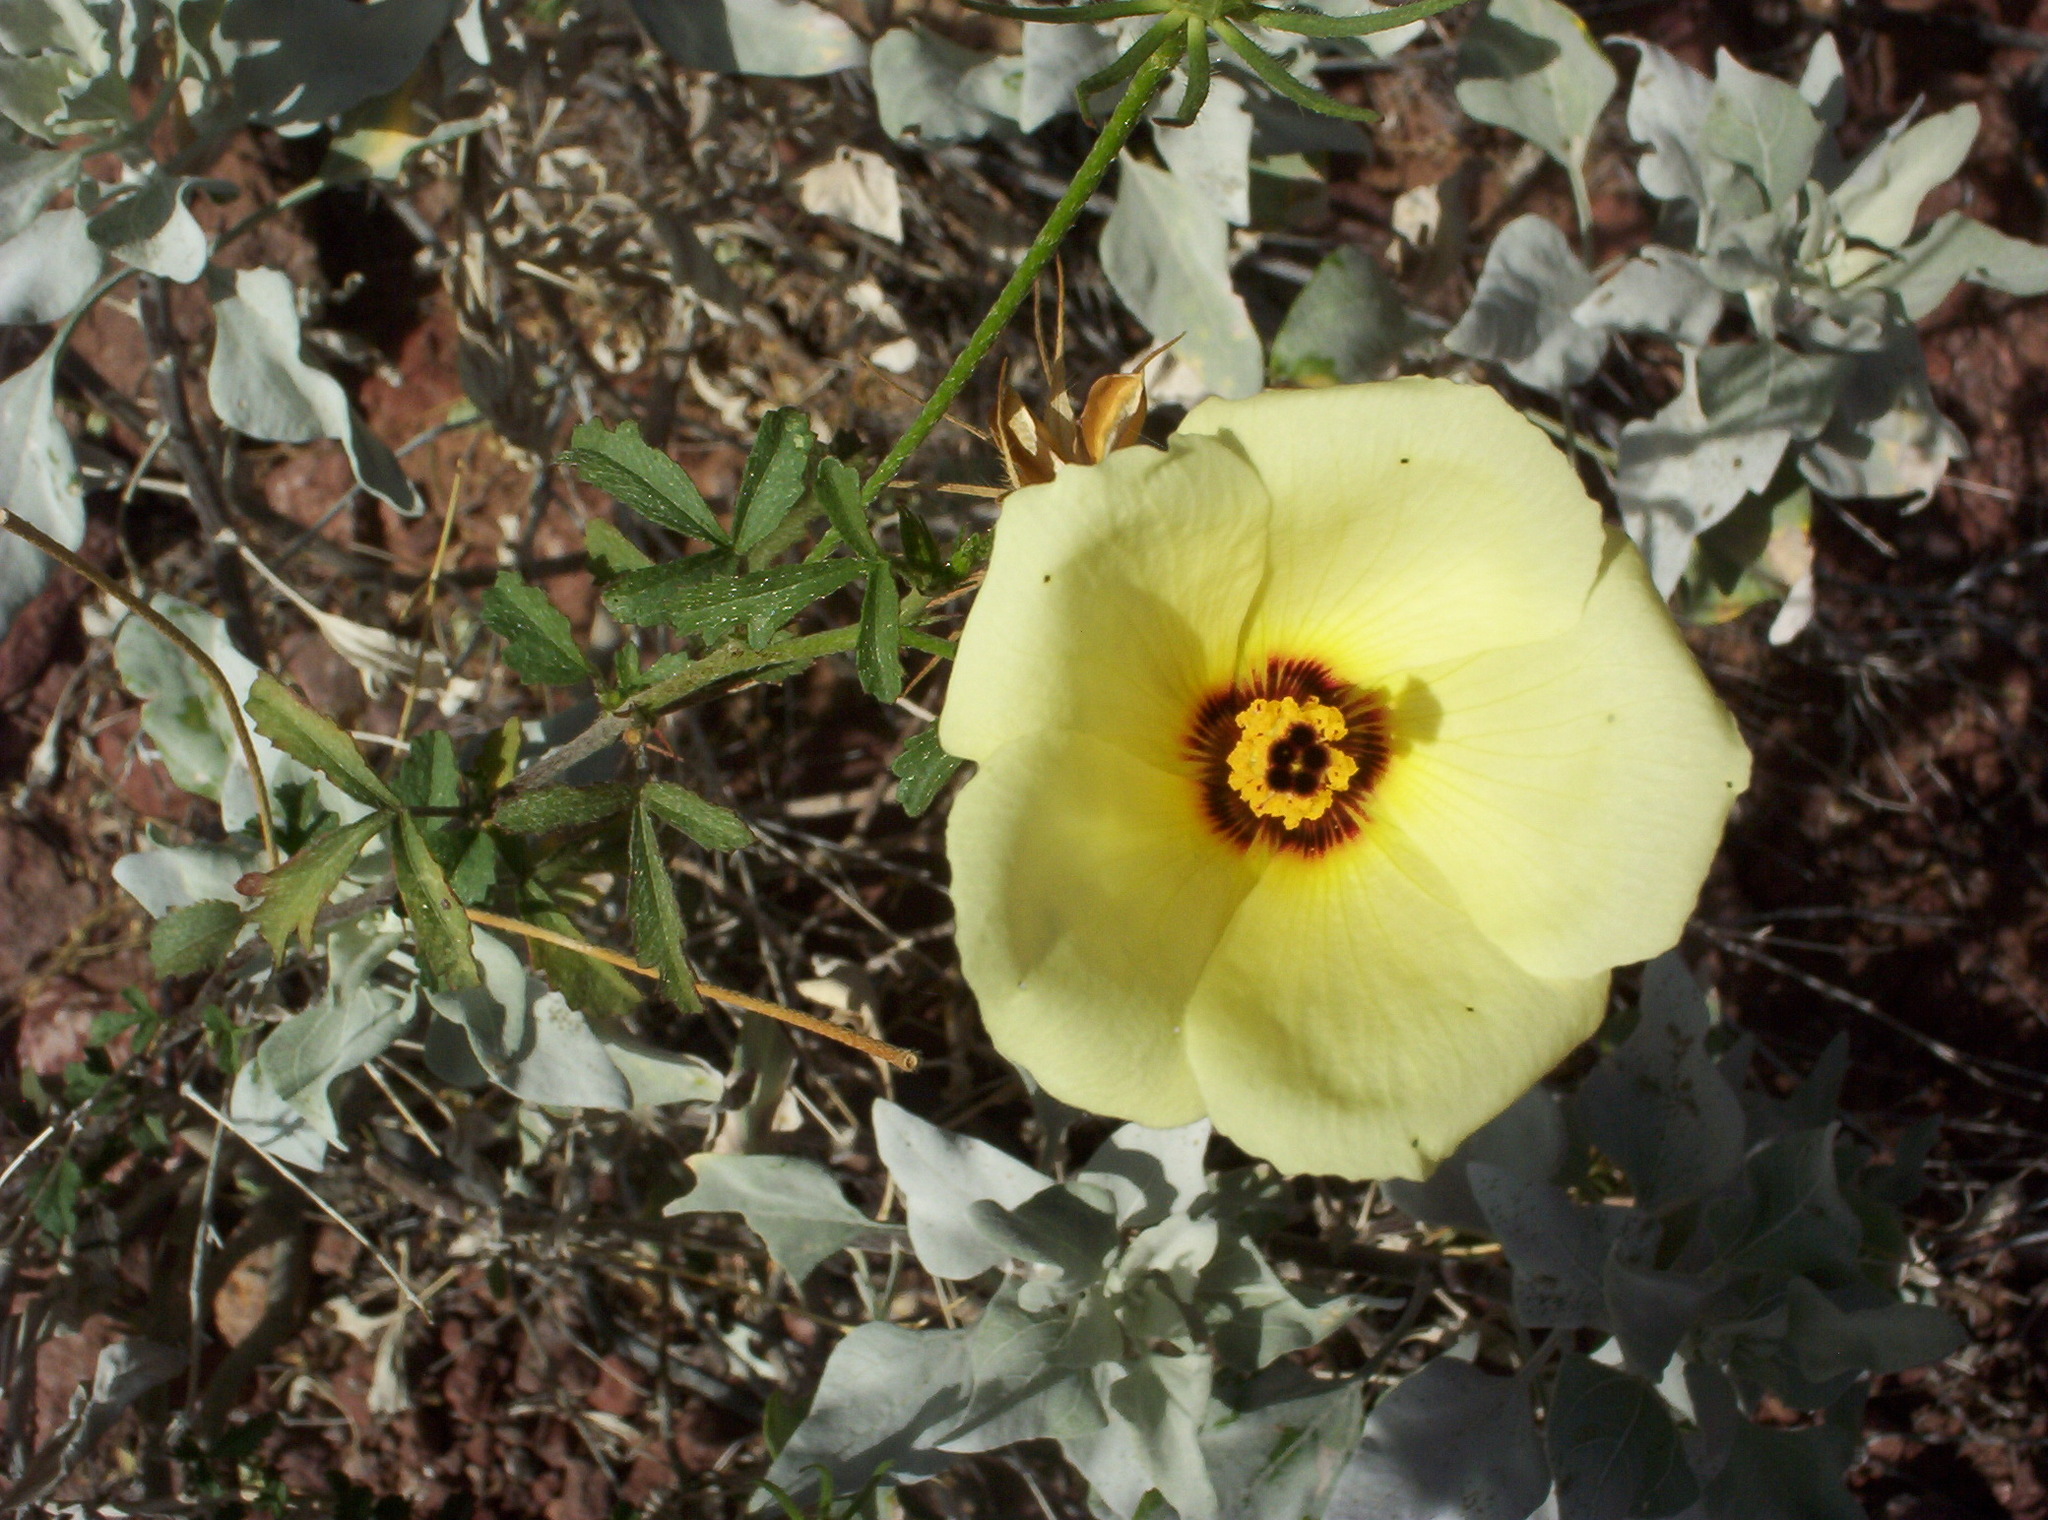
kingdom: Plantae
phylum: Tracheophyta
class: Magnoliopsida
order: Malvales
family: Malvaceae
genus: Hibiscus
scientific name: Hibiscus coulteri
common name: Desert rose-mallow
